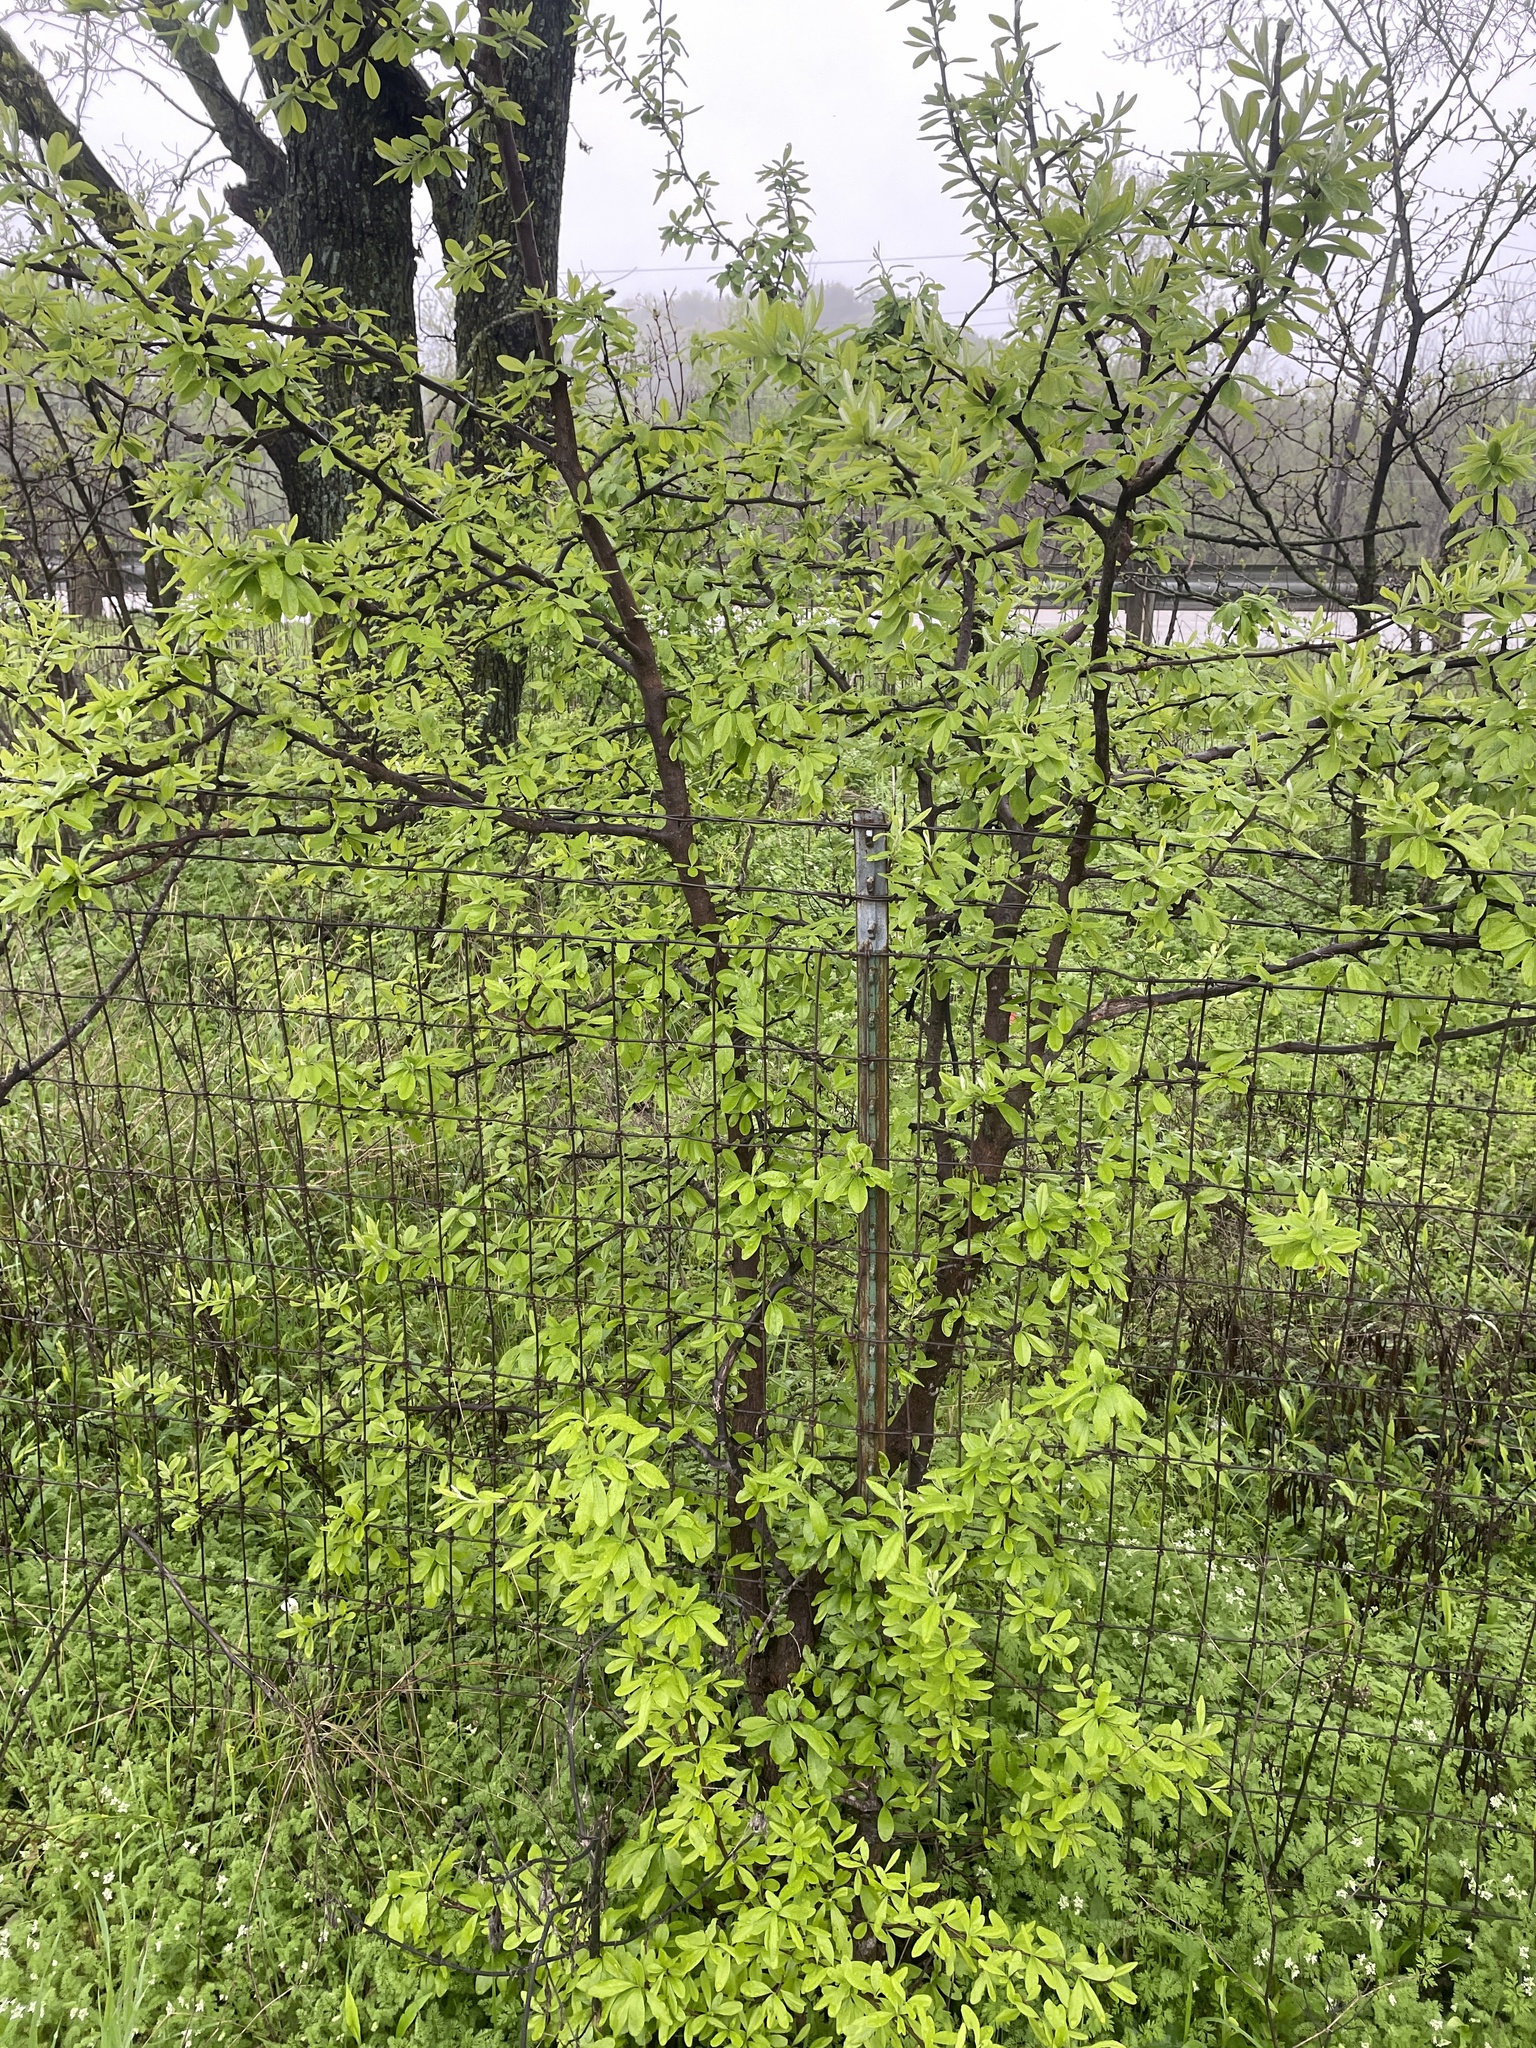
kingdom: Plantae
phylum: Tracheophyta
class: Magnoliopsida
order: Ericales
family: Sapotaceae
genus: Sideroxylon
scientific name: Sideroxylon lanuginosum
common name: Chittamwood
